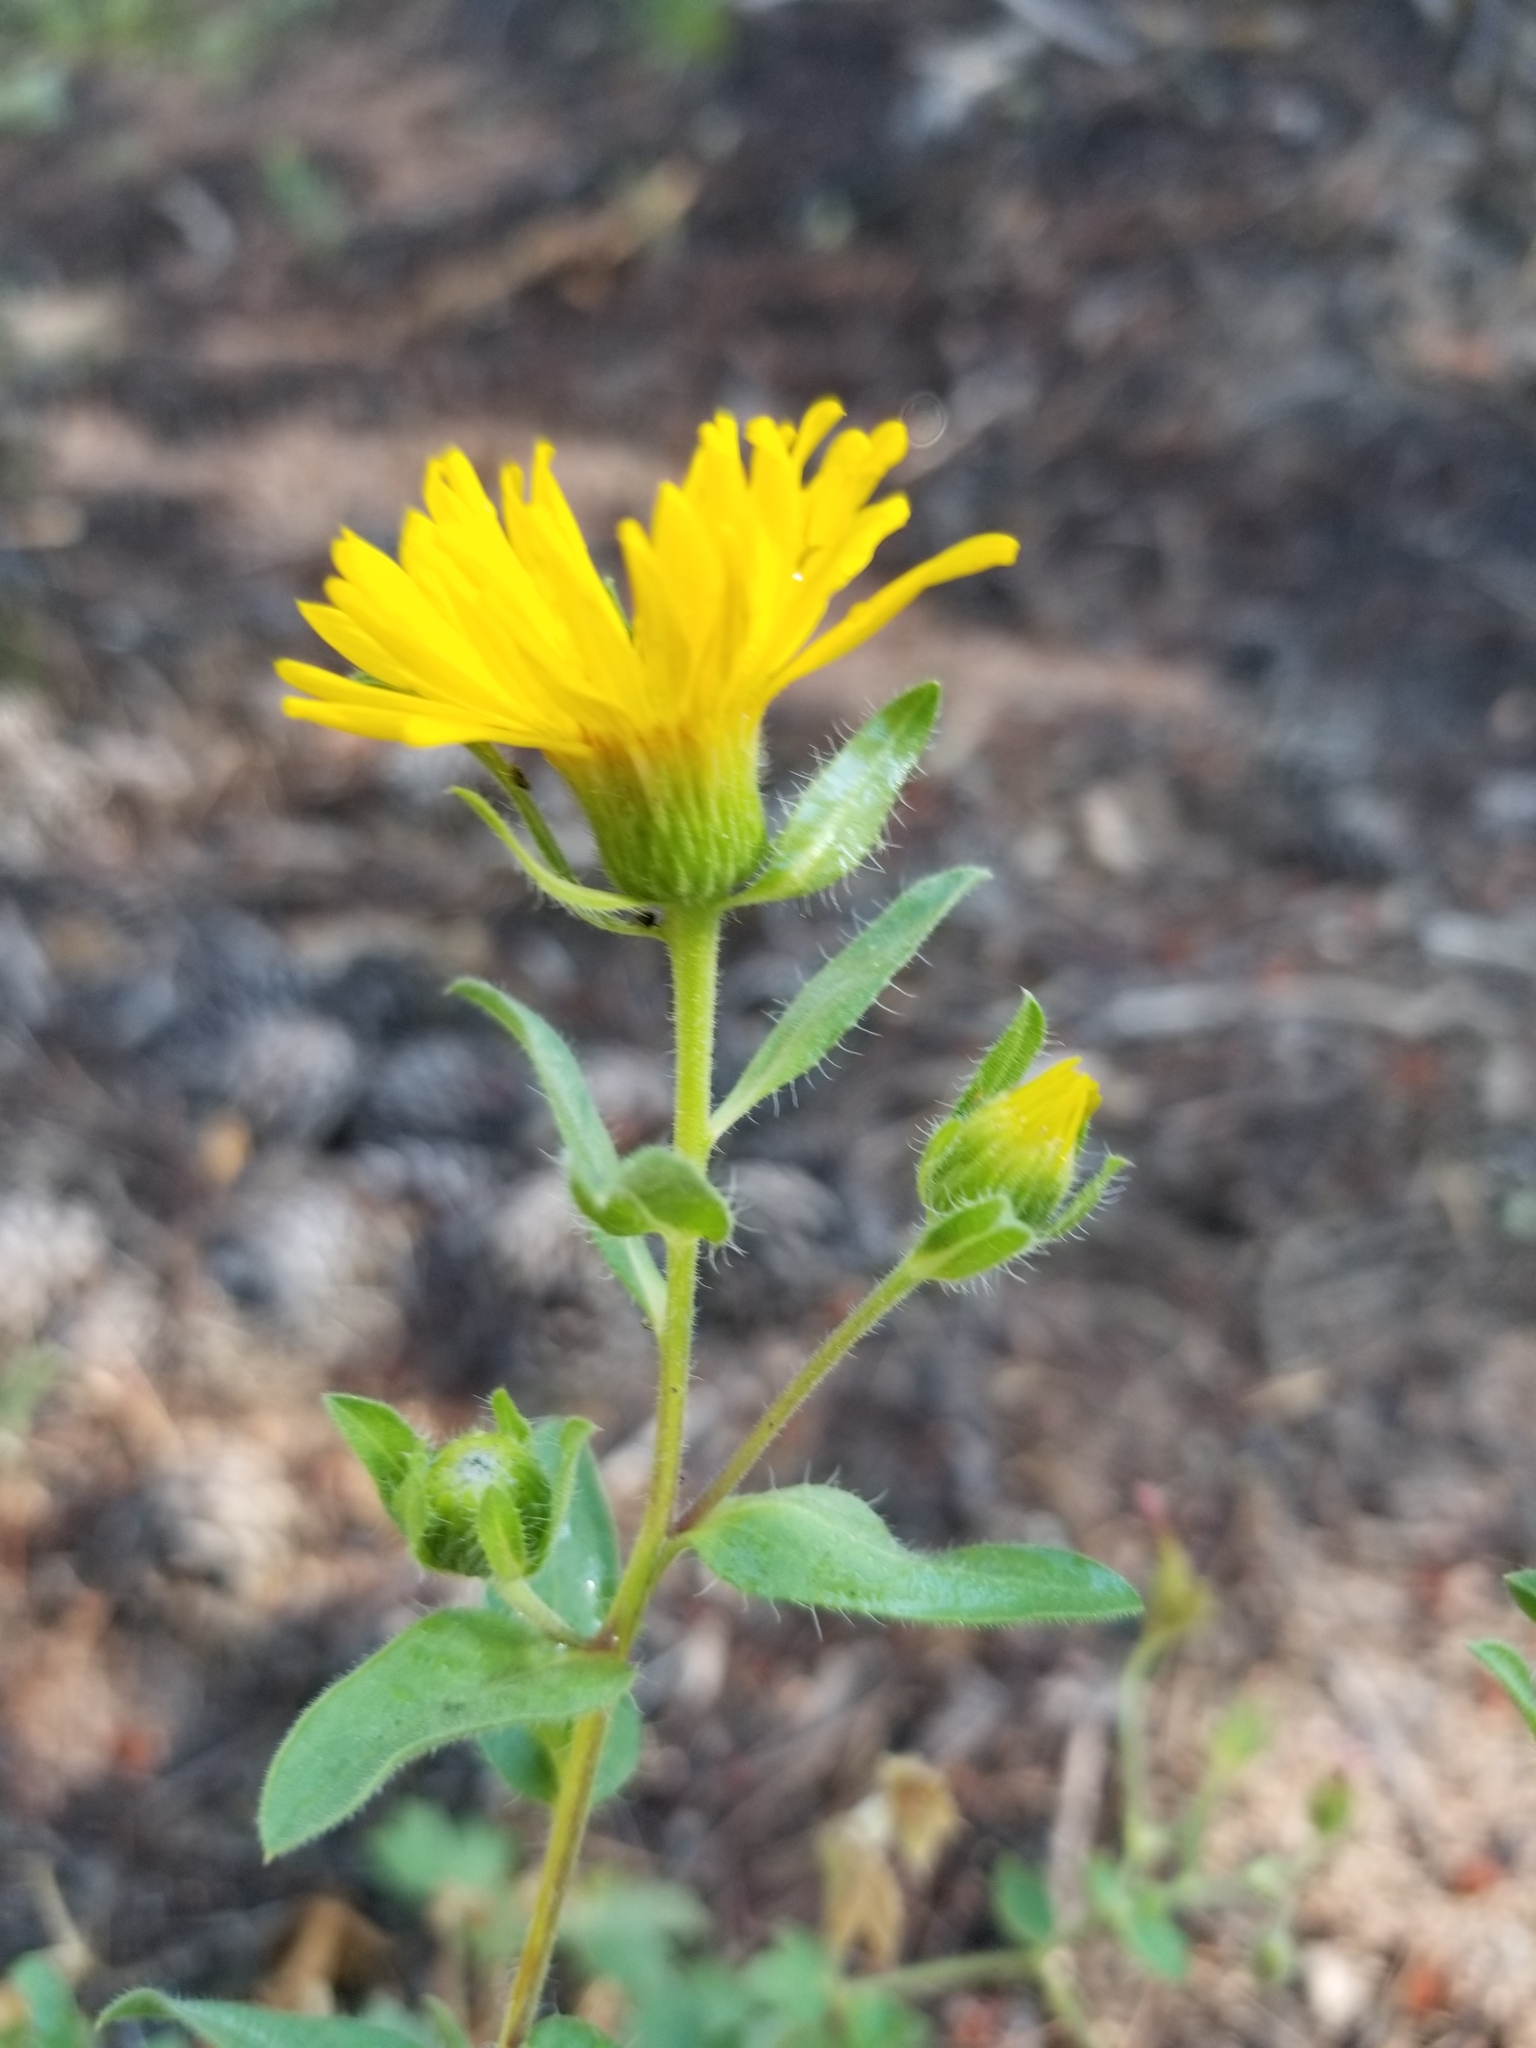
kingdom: Plantae
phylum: Tracheophyta
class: Magnoliopsida
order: Asterales
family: Asteraceae
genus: Heterotheca
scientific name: Heterotheca villosa
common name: Hairy false goldenaster
